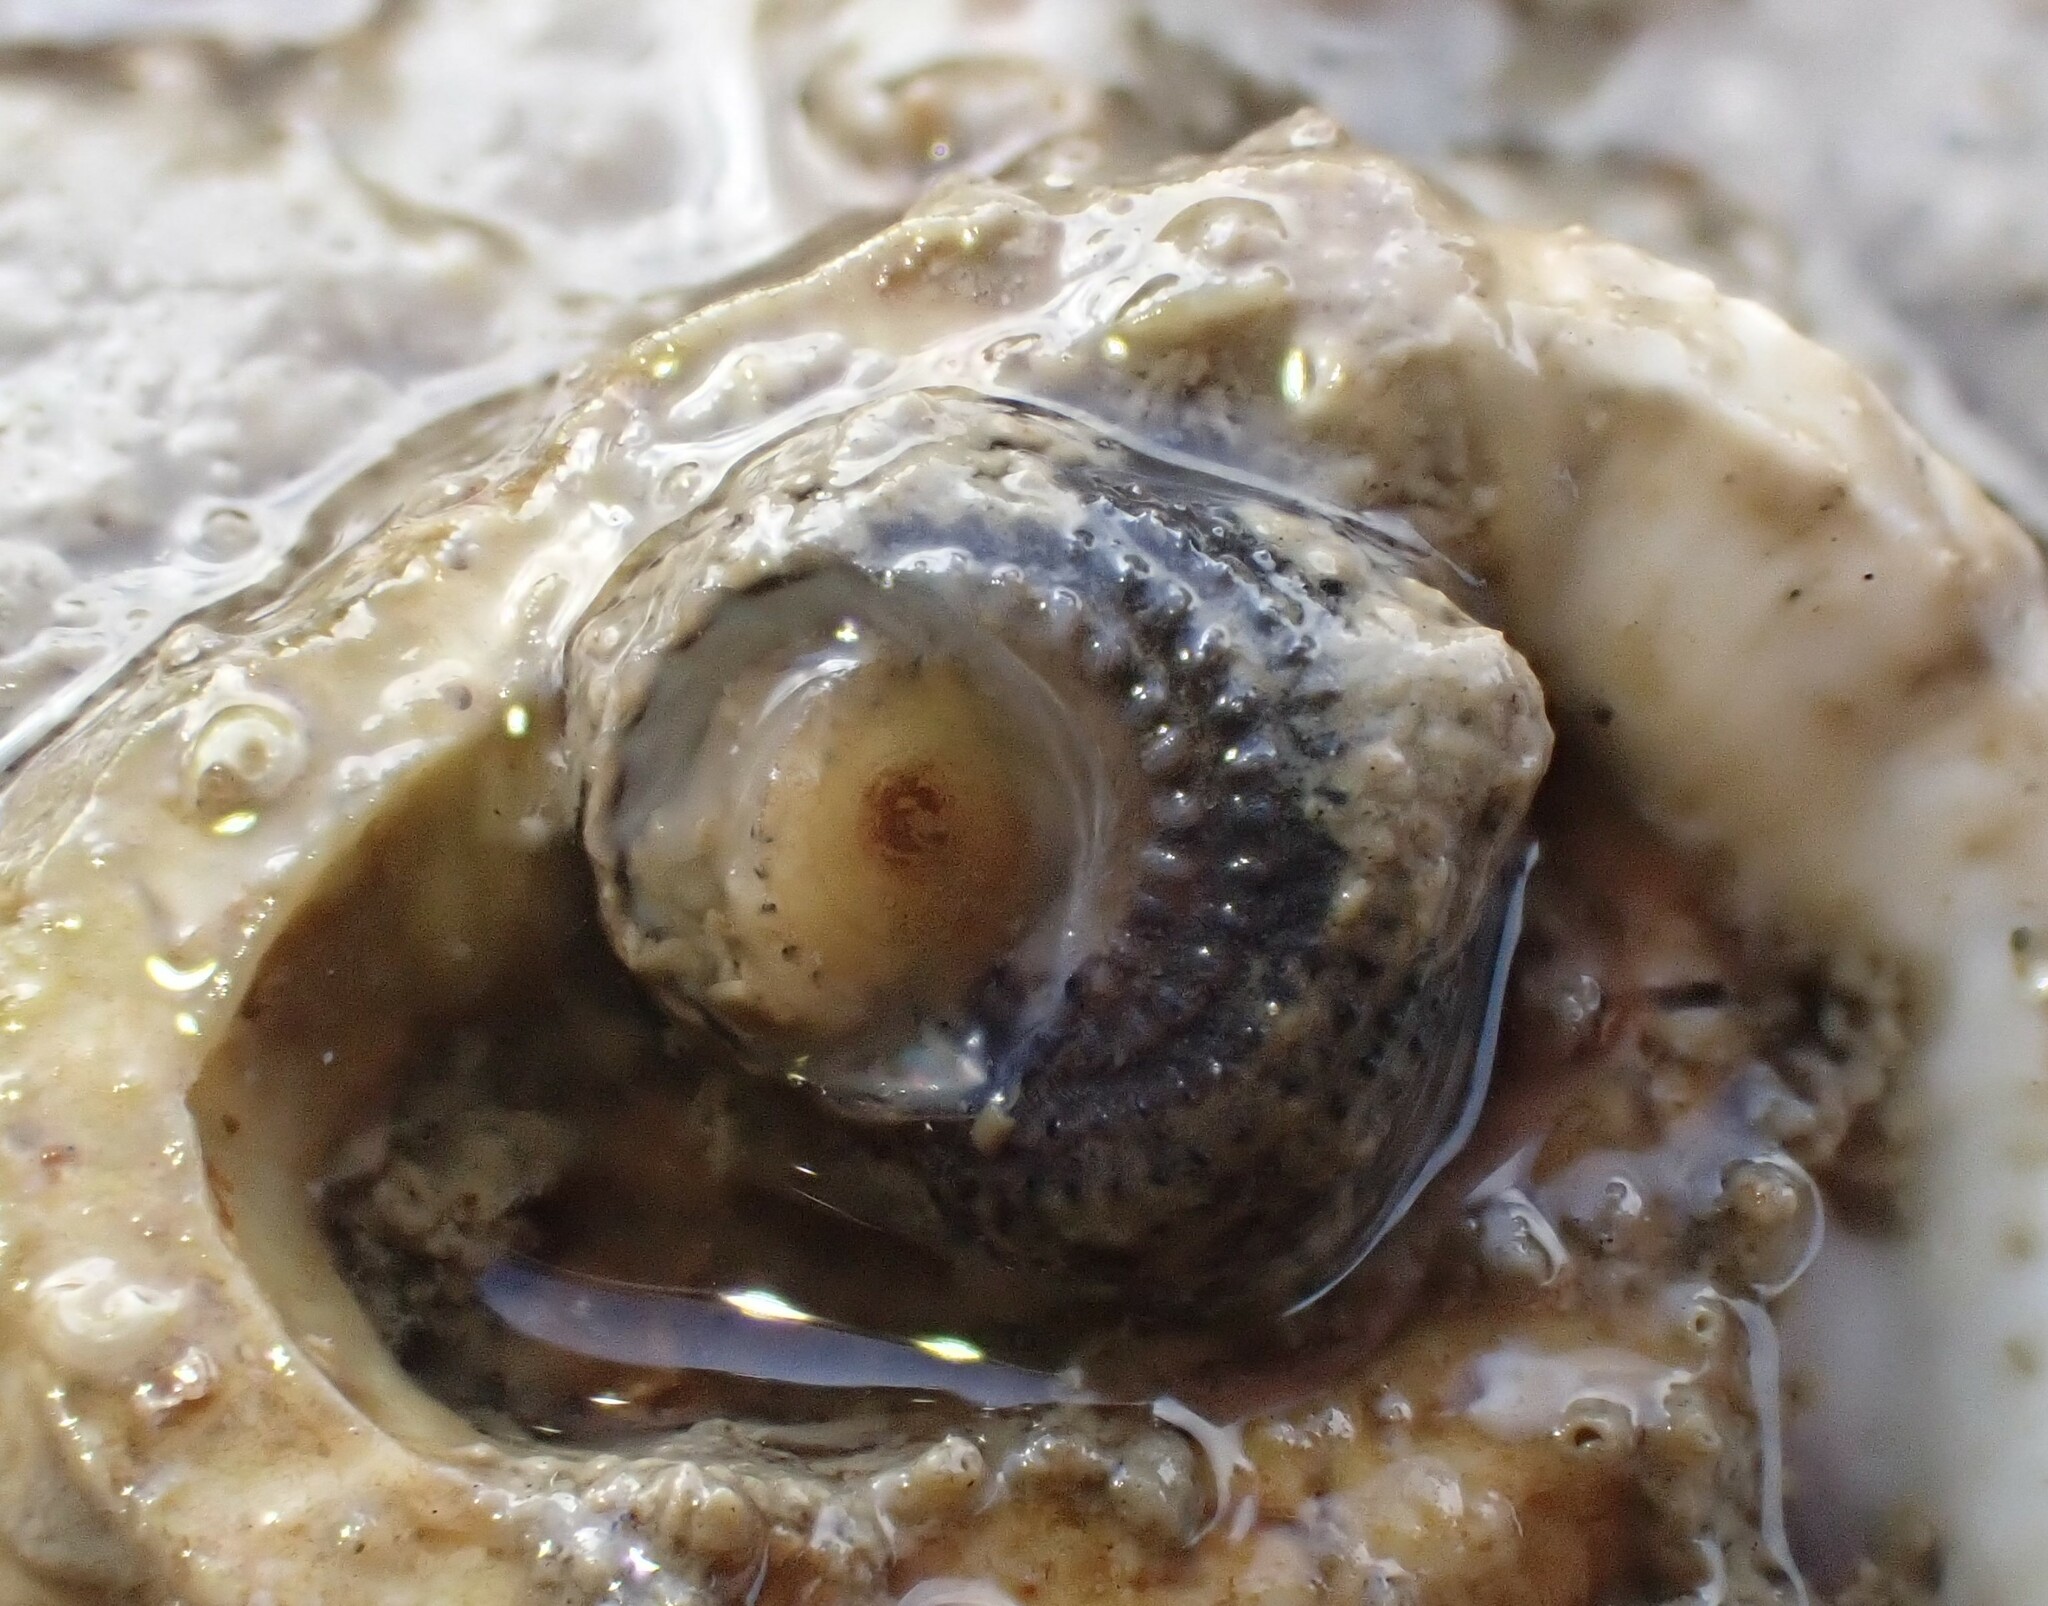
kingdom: Animalia
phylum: Mollusca
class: Gastropoda
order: Seguenziida
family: Chilodontaidae
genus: Herpetopoma
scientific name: Herpetopoma bellum
